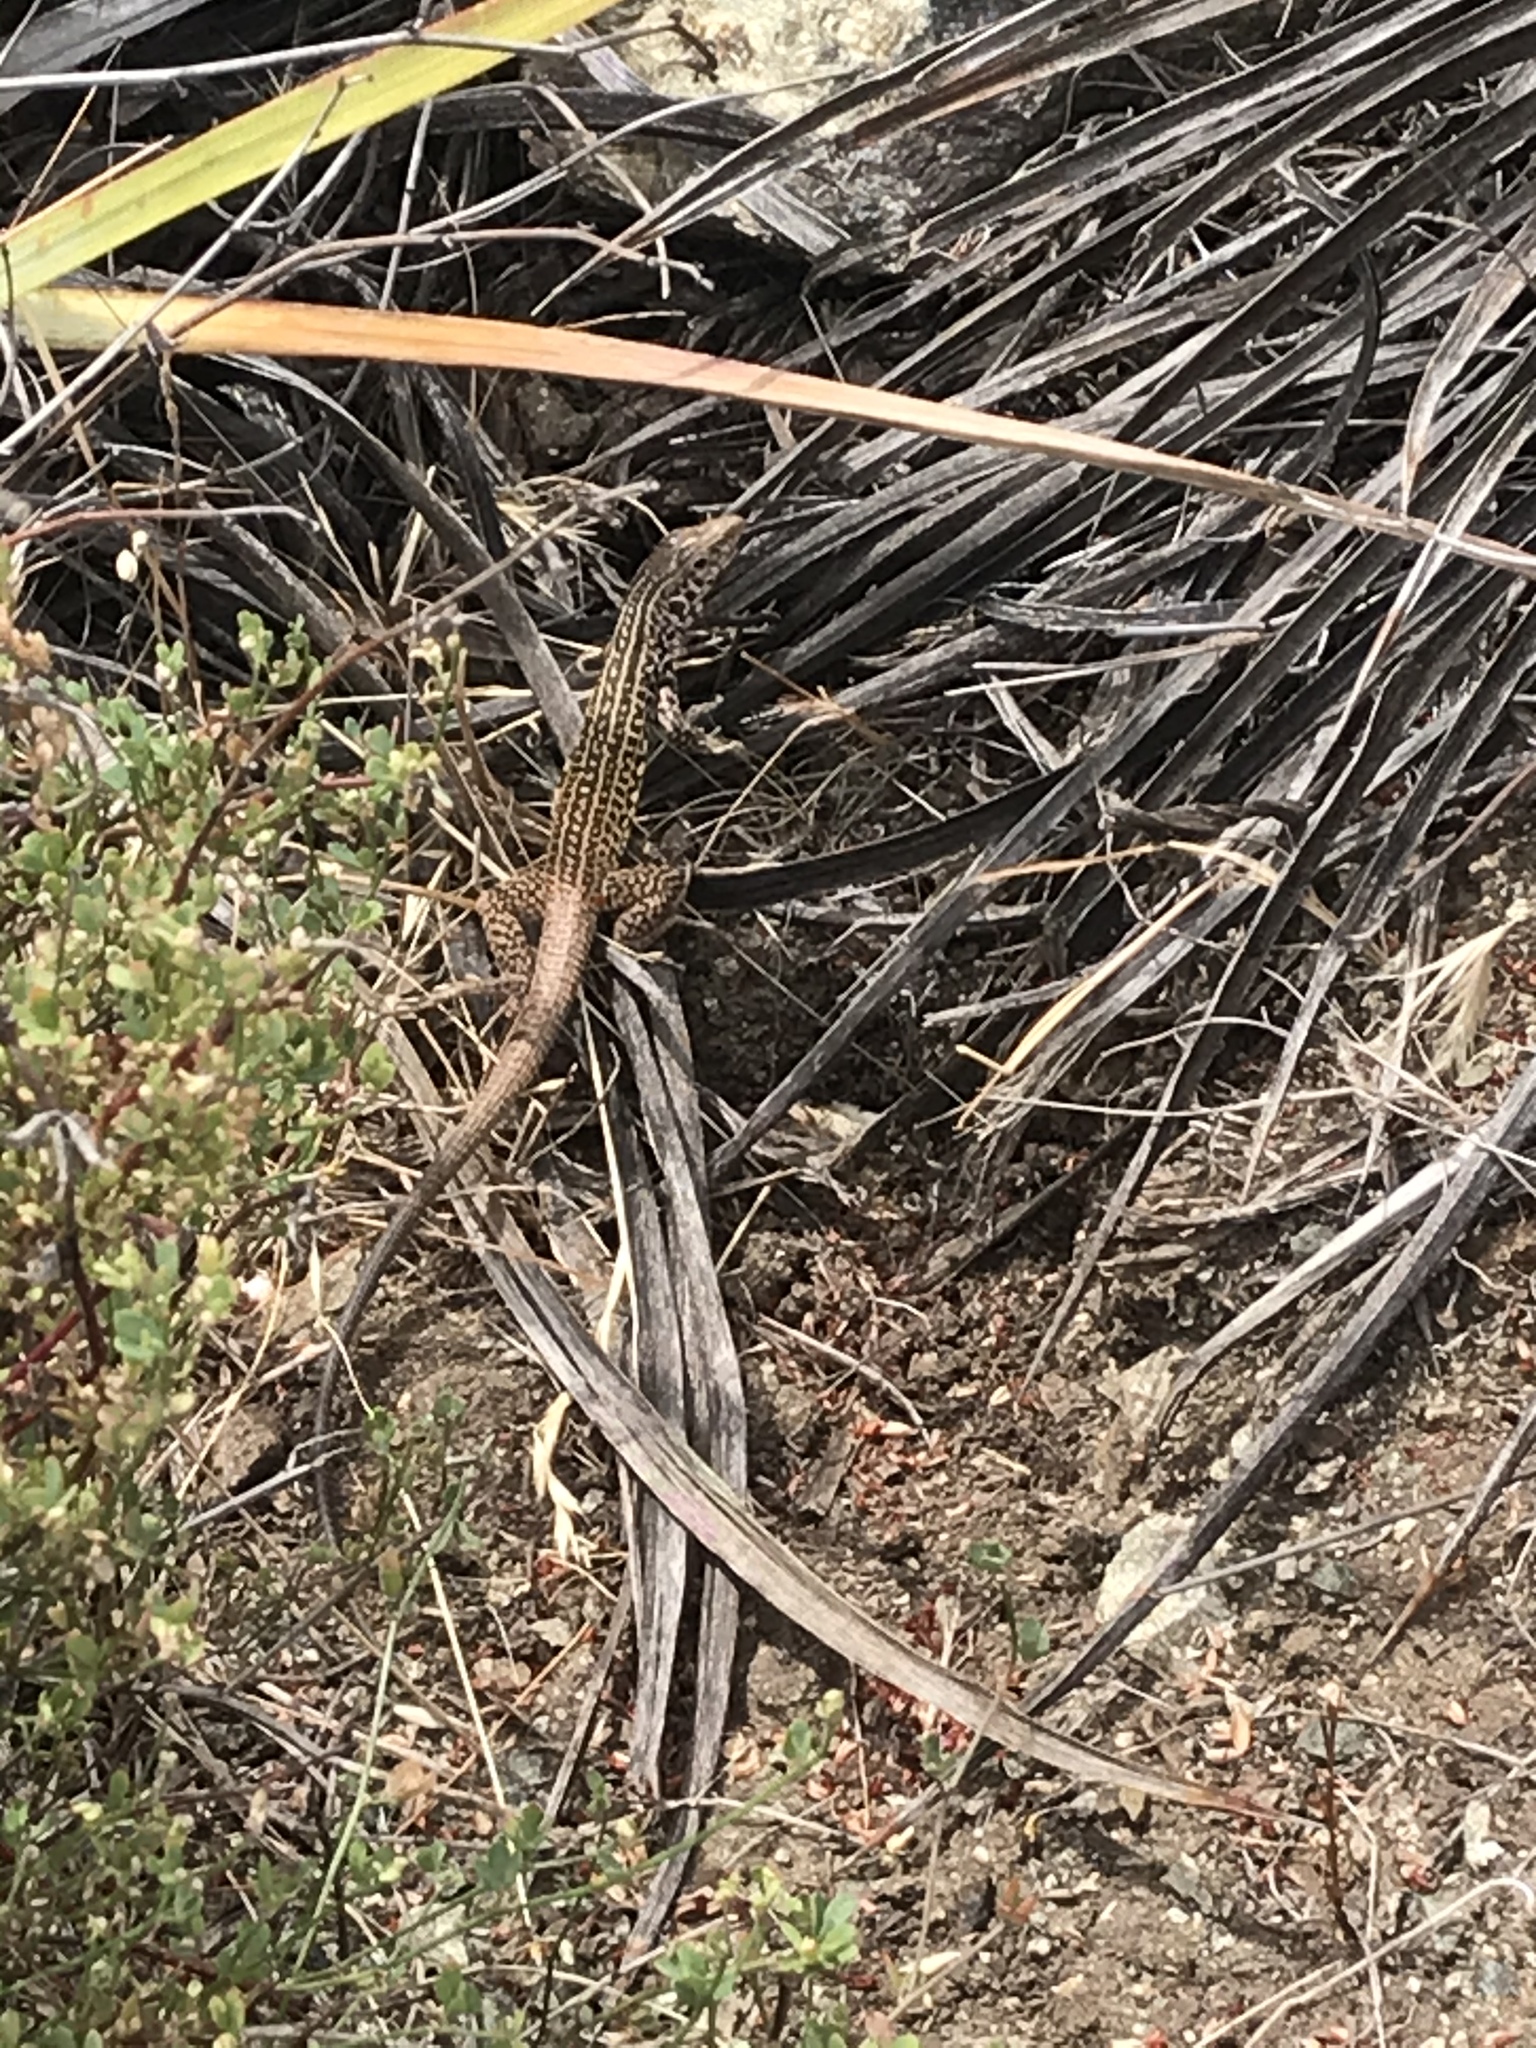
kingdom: Animalia
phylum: Chordata
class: Squamata
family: Teiidae
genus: Aspidoscelis
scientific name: Aspidoscelis tigris
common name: Tiger whiptail
